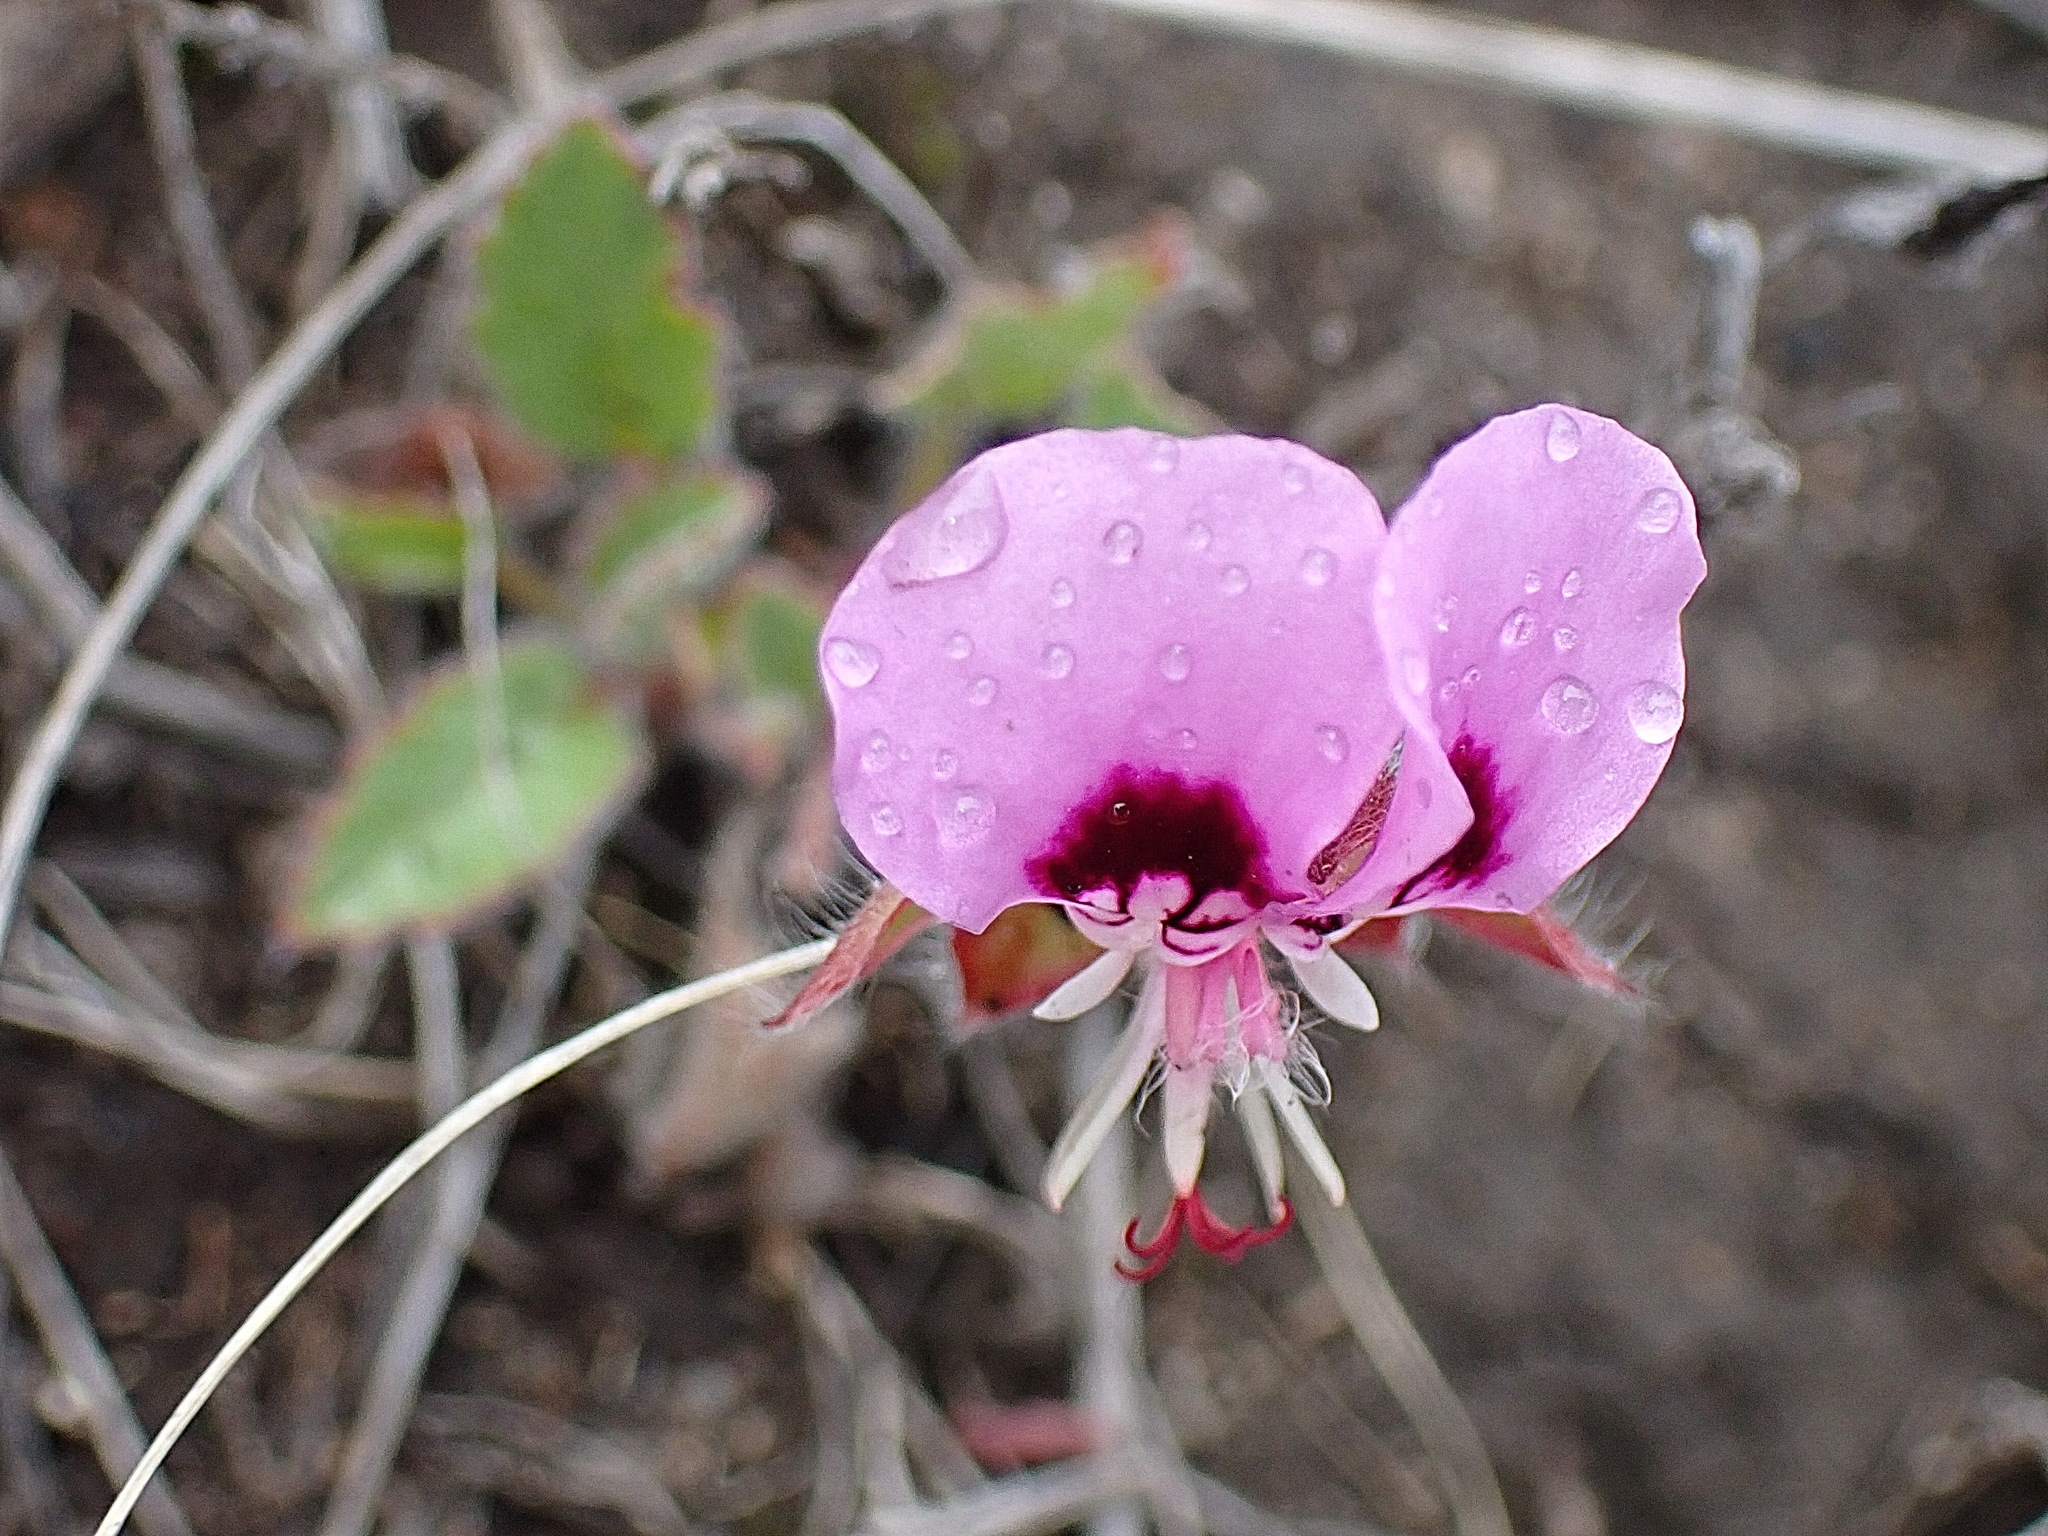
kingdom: Plantae
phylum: Tracheophyta
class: Magnoliopsida
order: Geraniales
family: Geraniaceae
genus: Pelargonium
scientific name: Pelargonium ovale
